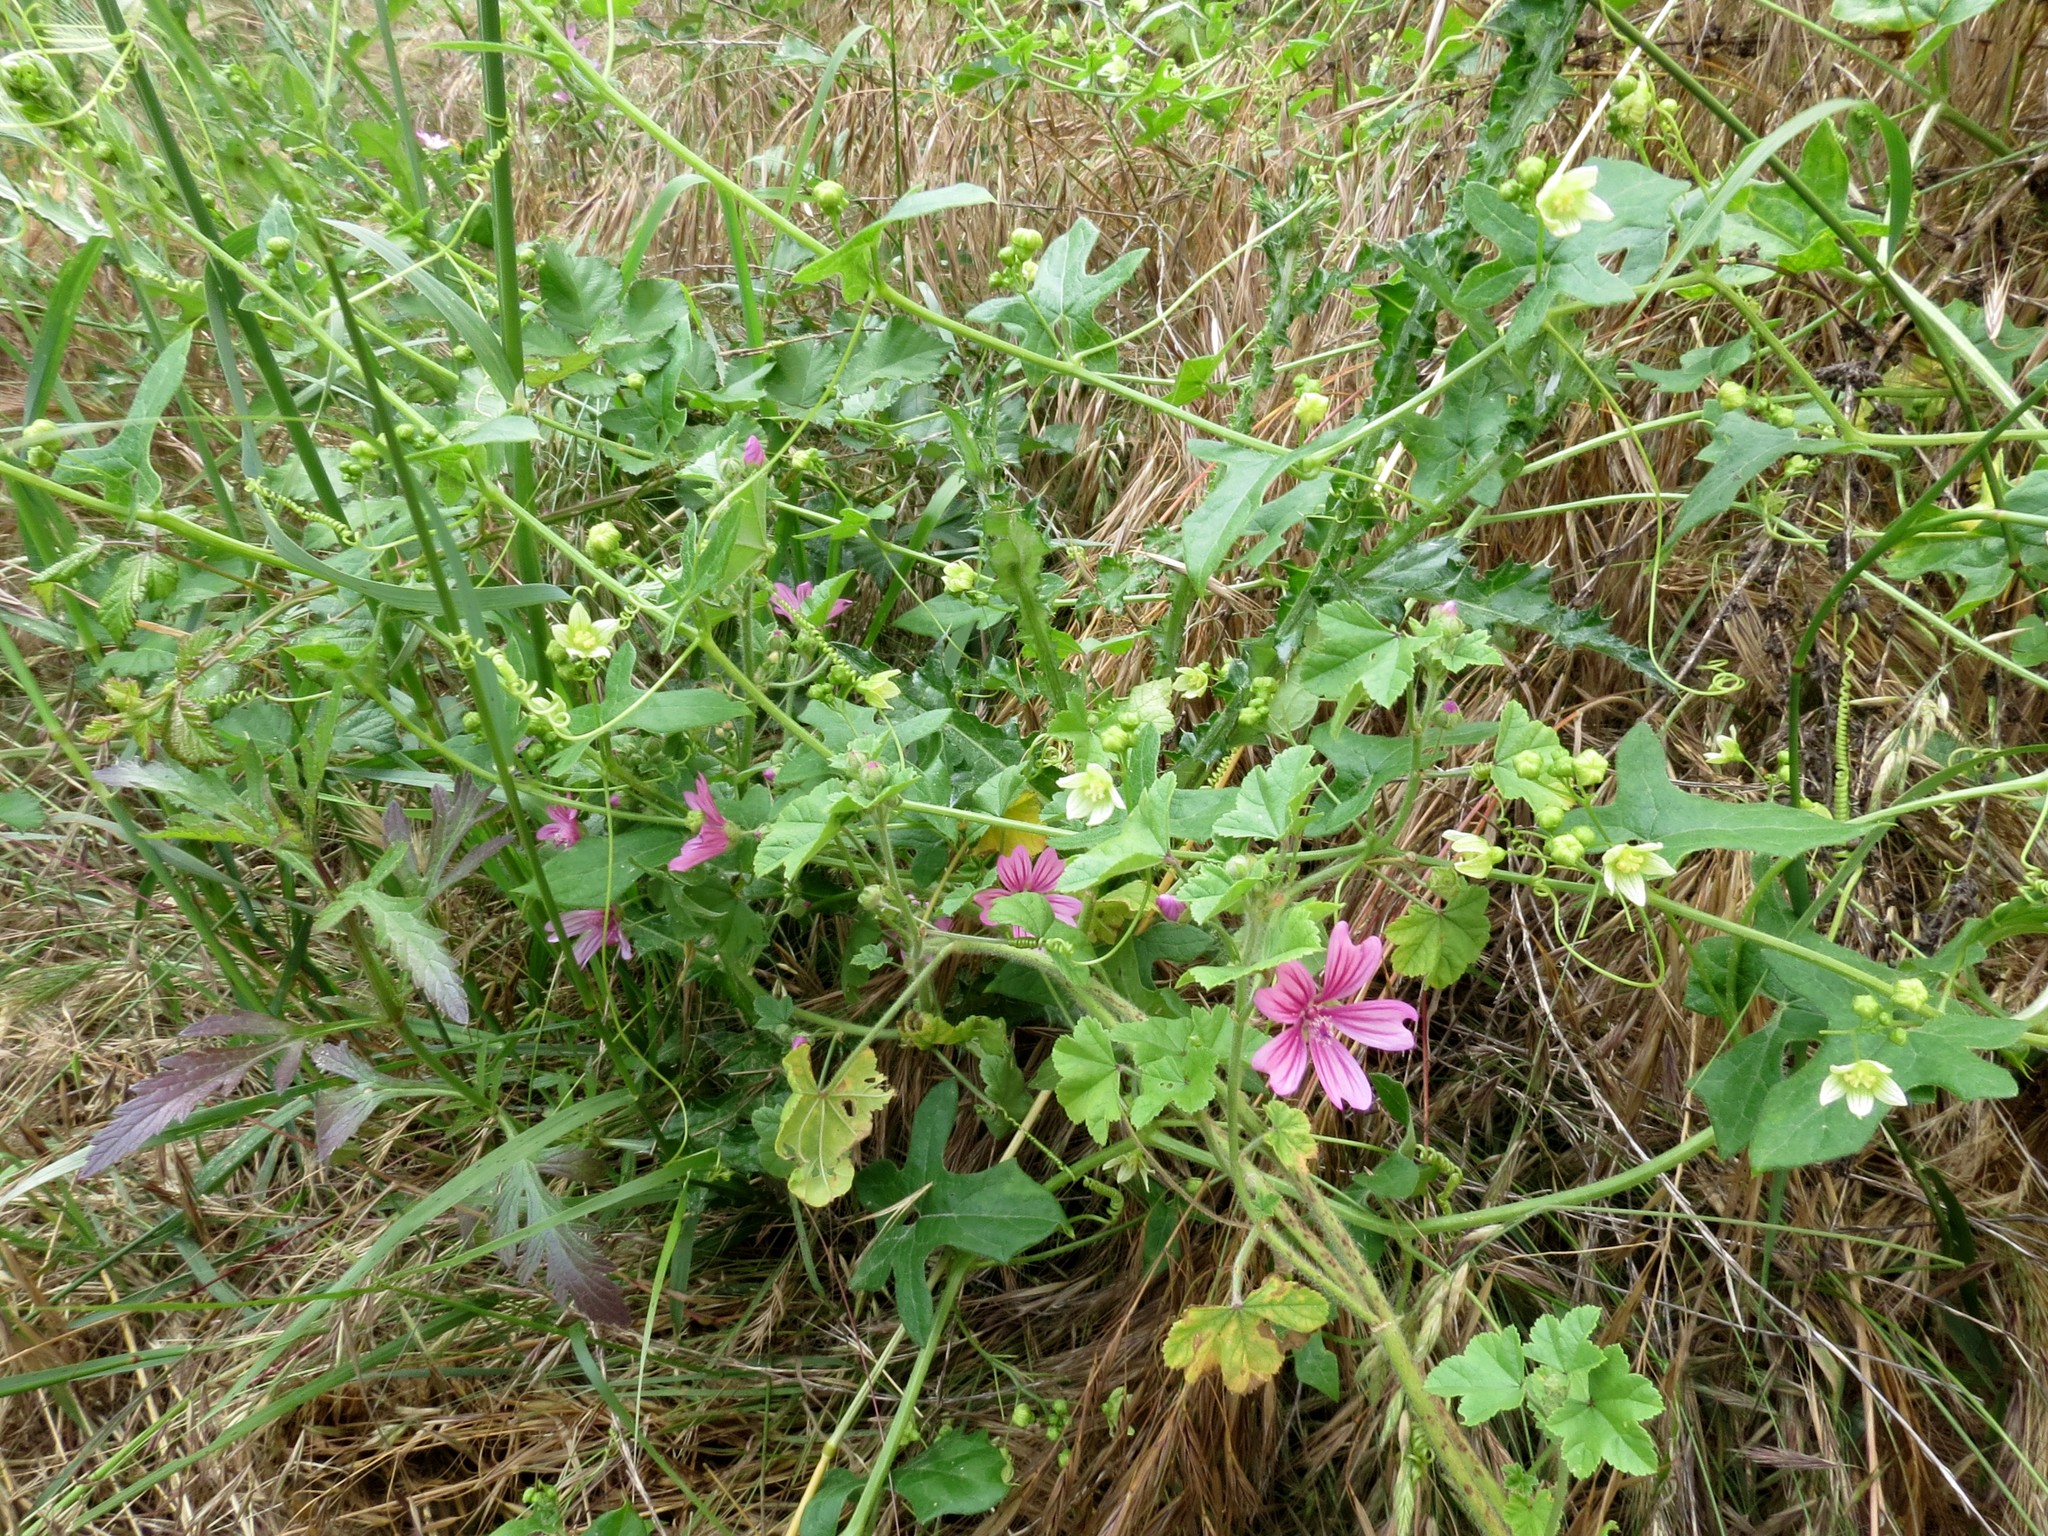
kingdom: Plantae
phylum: Tracheophyta
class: Magnoliopsida
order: Cucurbitales
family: Cucurbitaceae
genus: Bryonia
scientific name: Bryonia dioica
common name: White bryony
